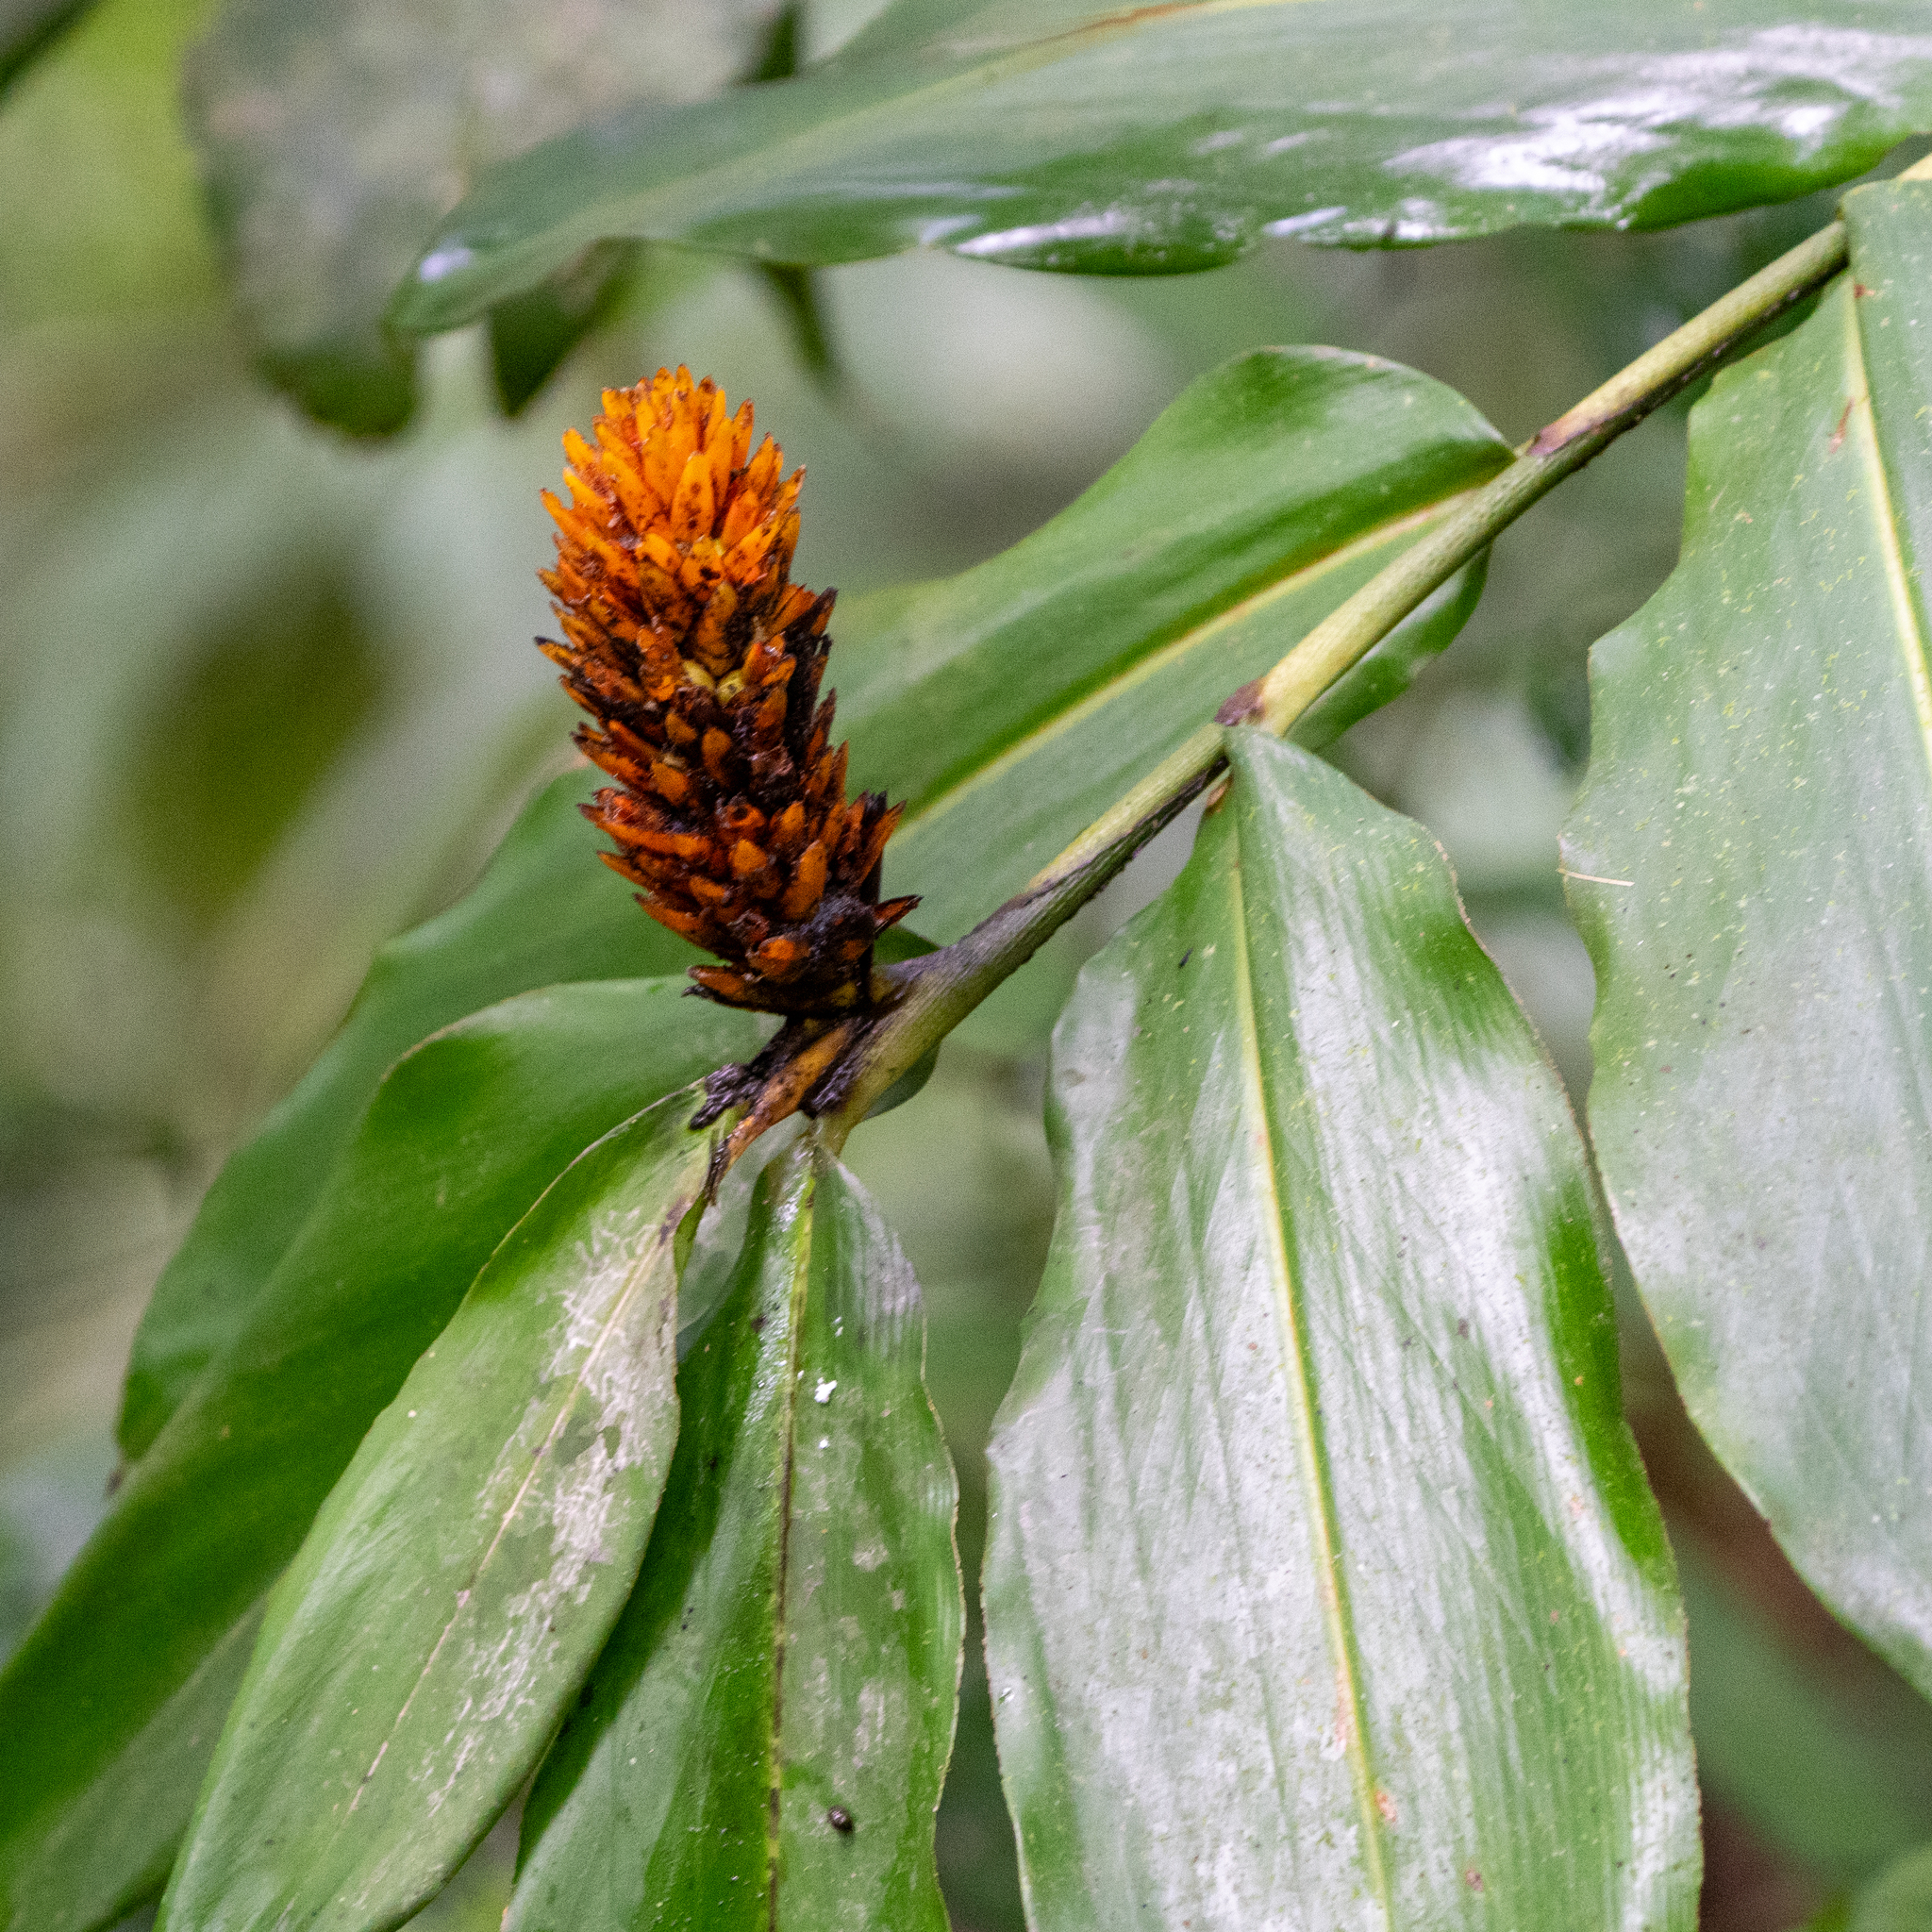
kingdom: Plantae
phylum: Tracheophyta
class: Liliopsida
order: Zingiberales
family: Zingiberaceae
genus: Renealmia
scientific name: Renealmia cernua
